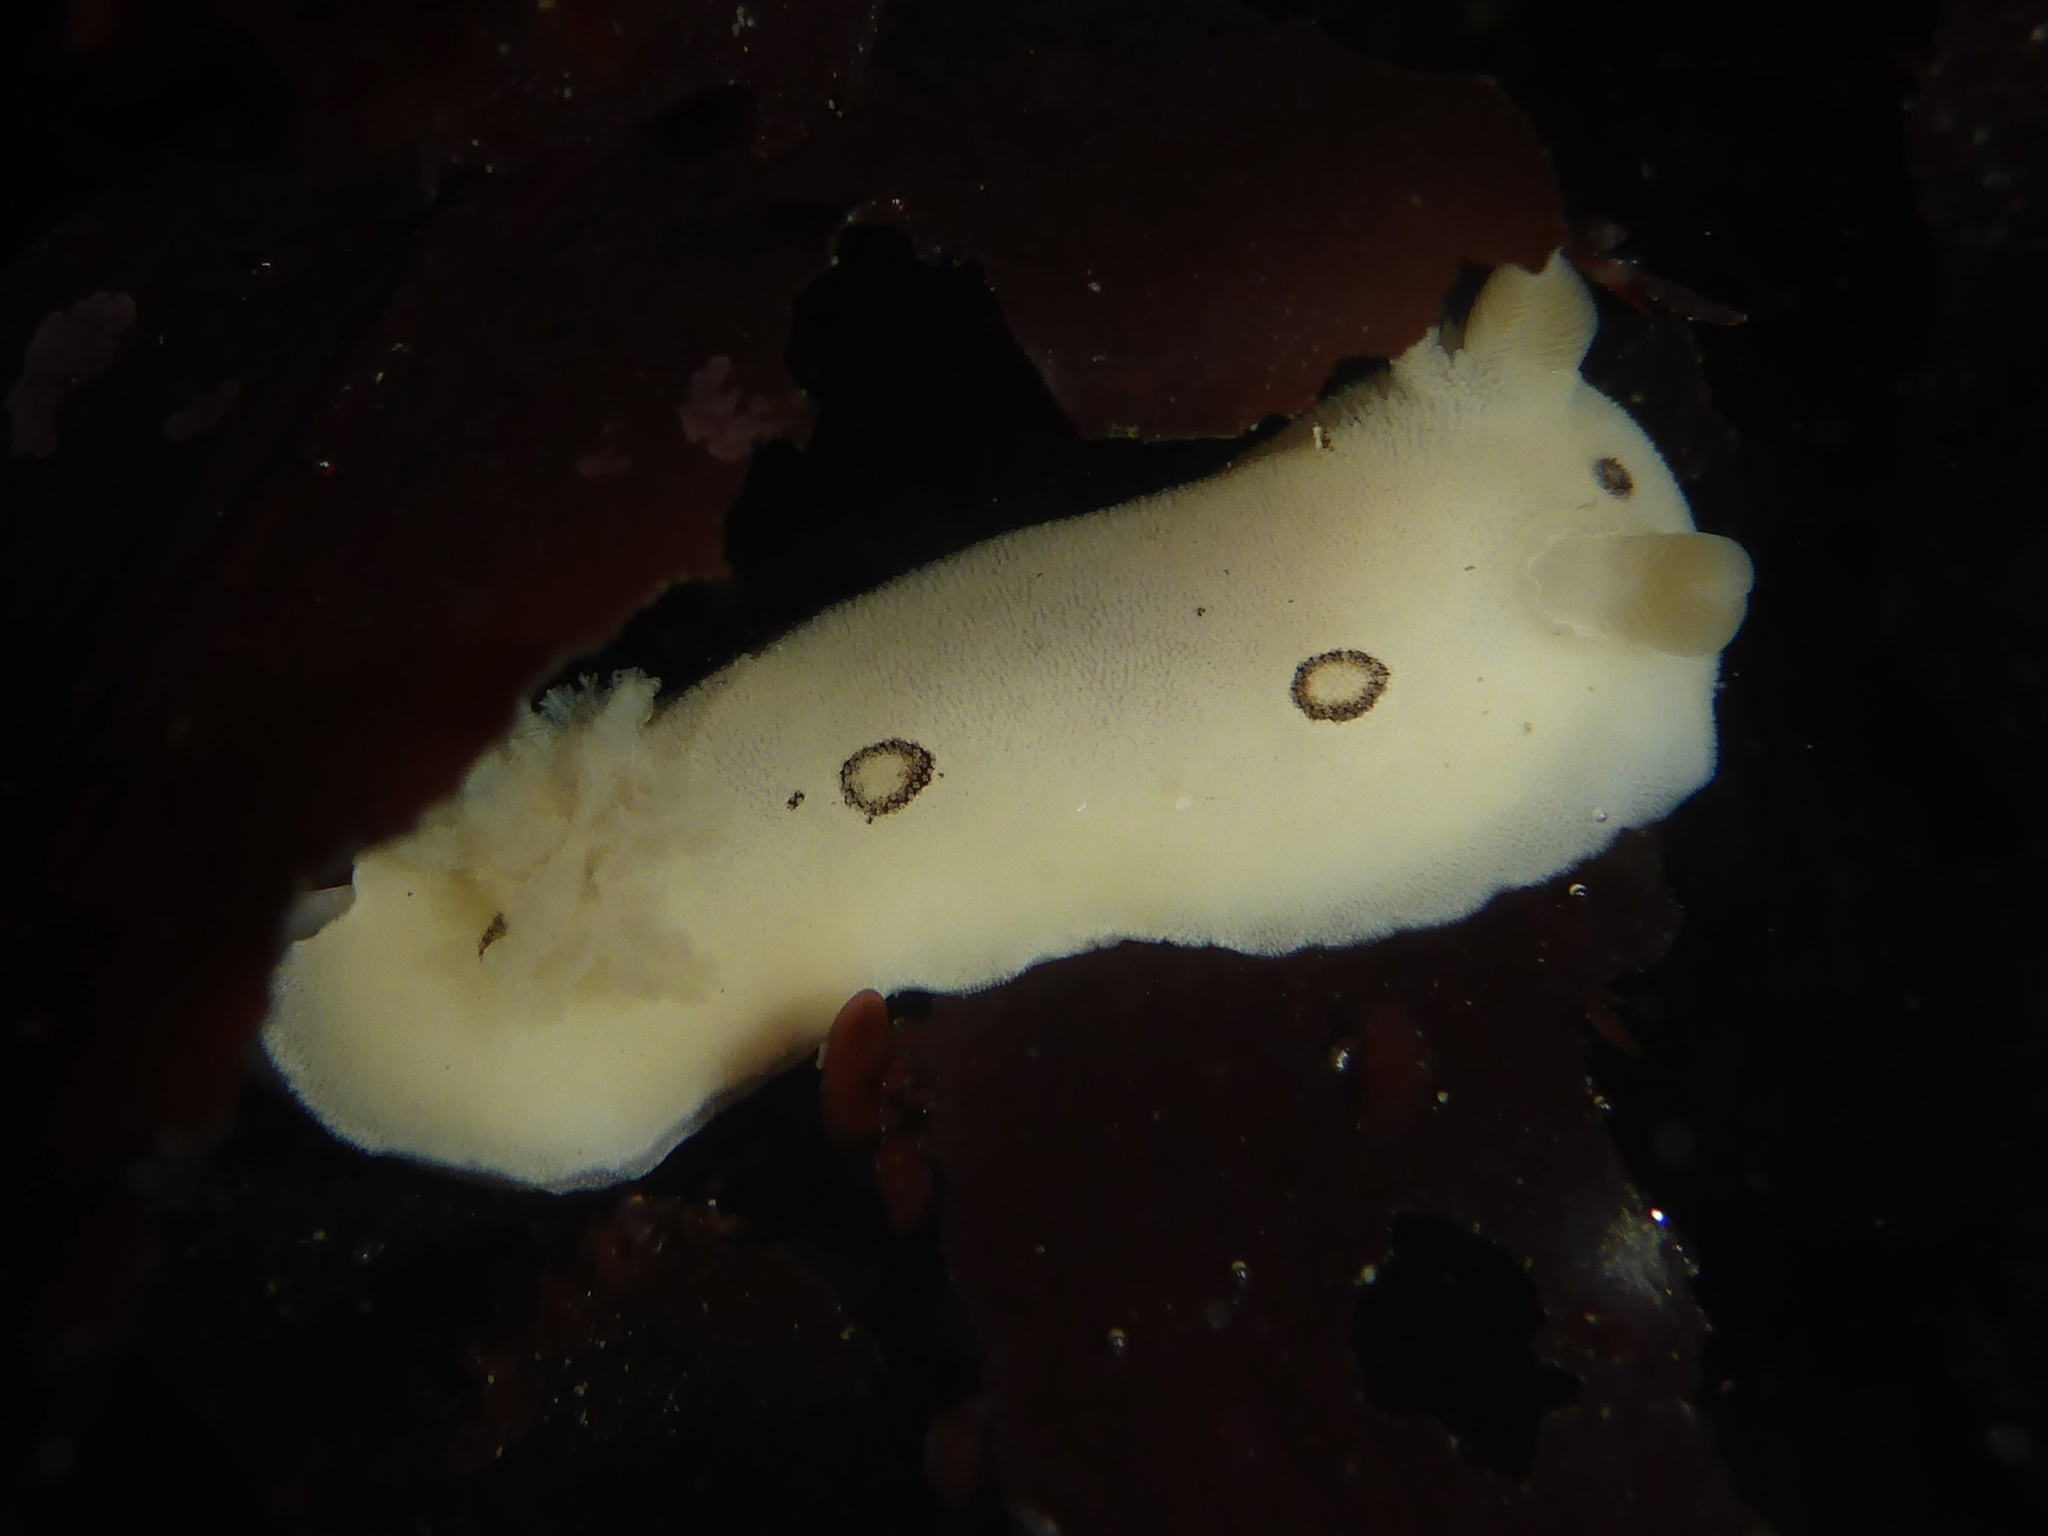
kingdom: Animalia
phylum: Mollusca
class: Gastropoda
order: Nudibranchia
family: Discodorididae
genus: Diaulula
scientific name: Diaulula sandiegensis
